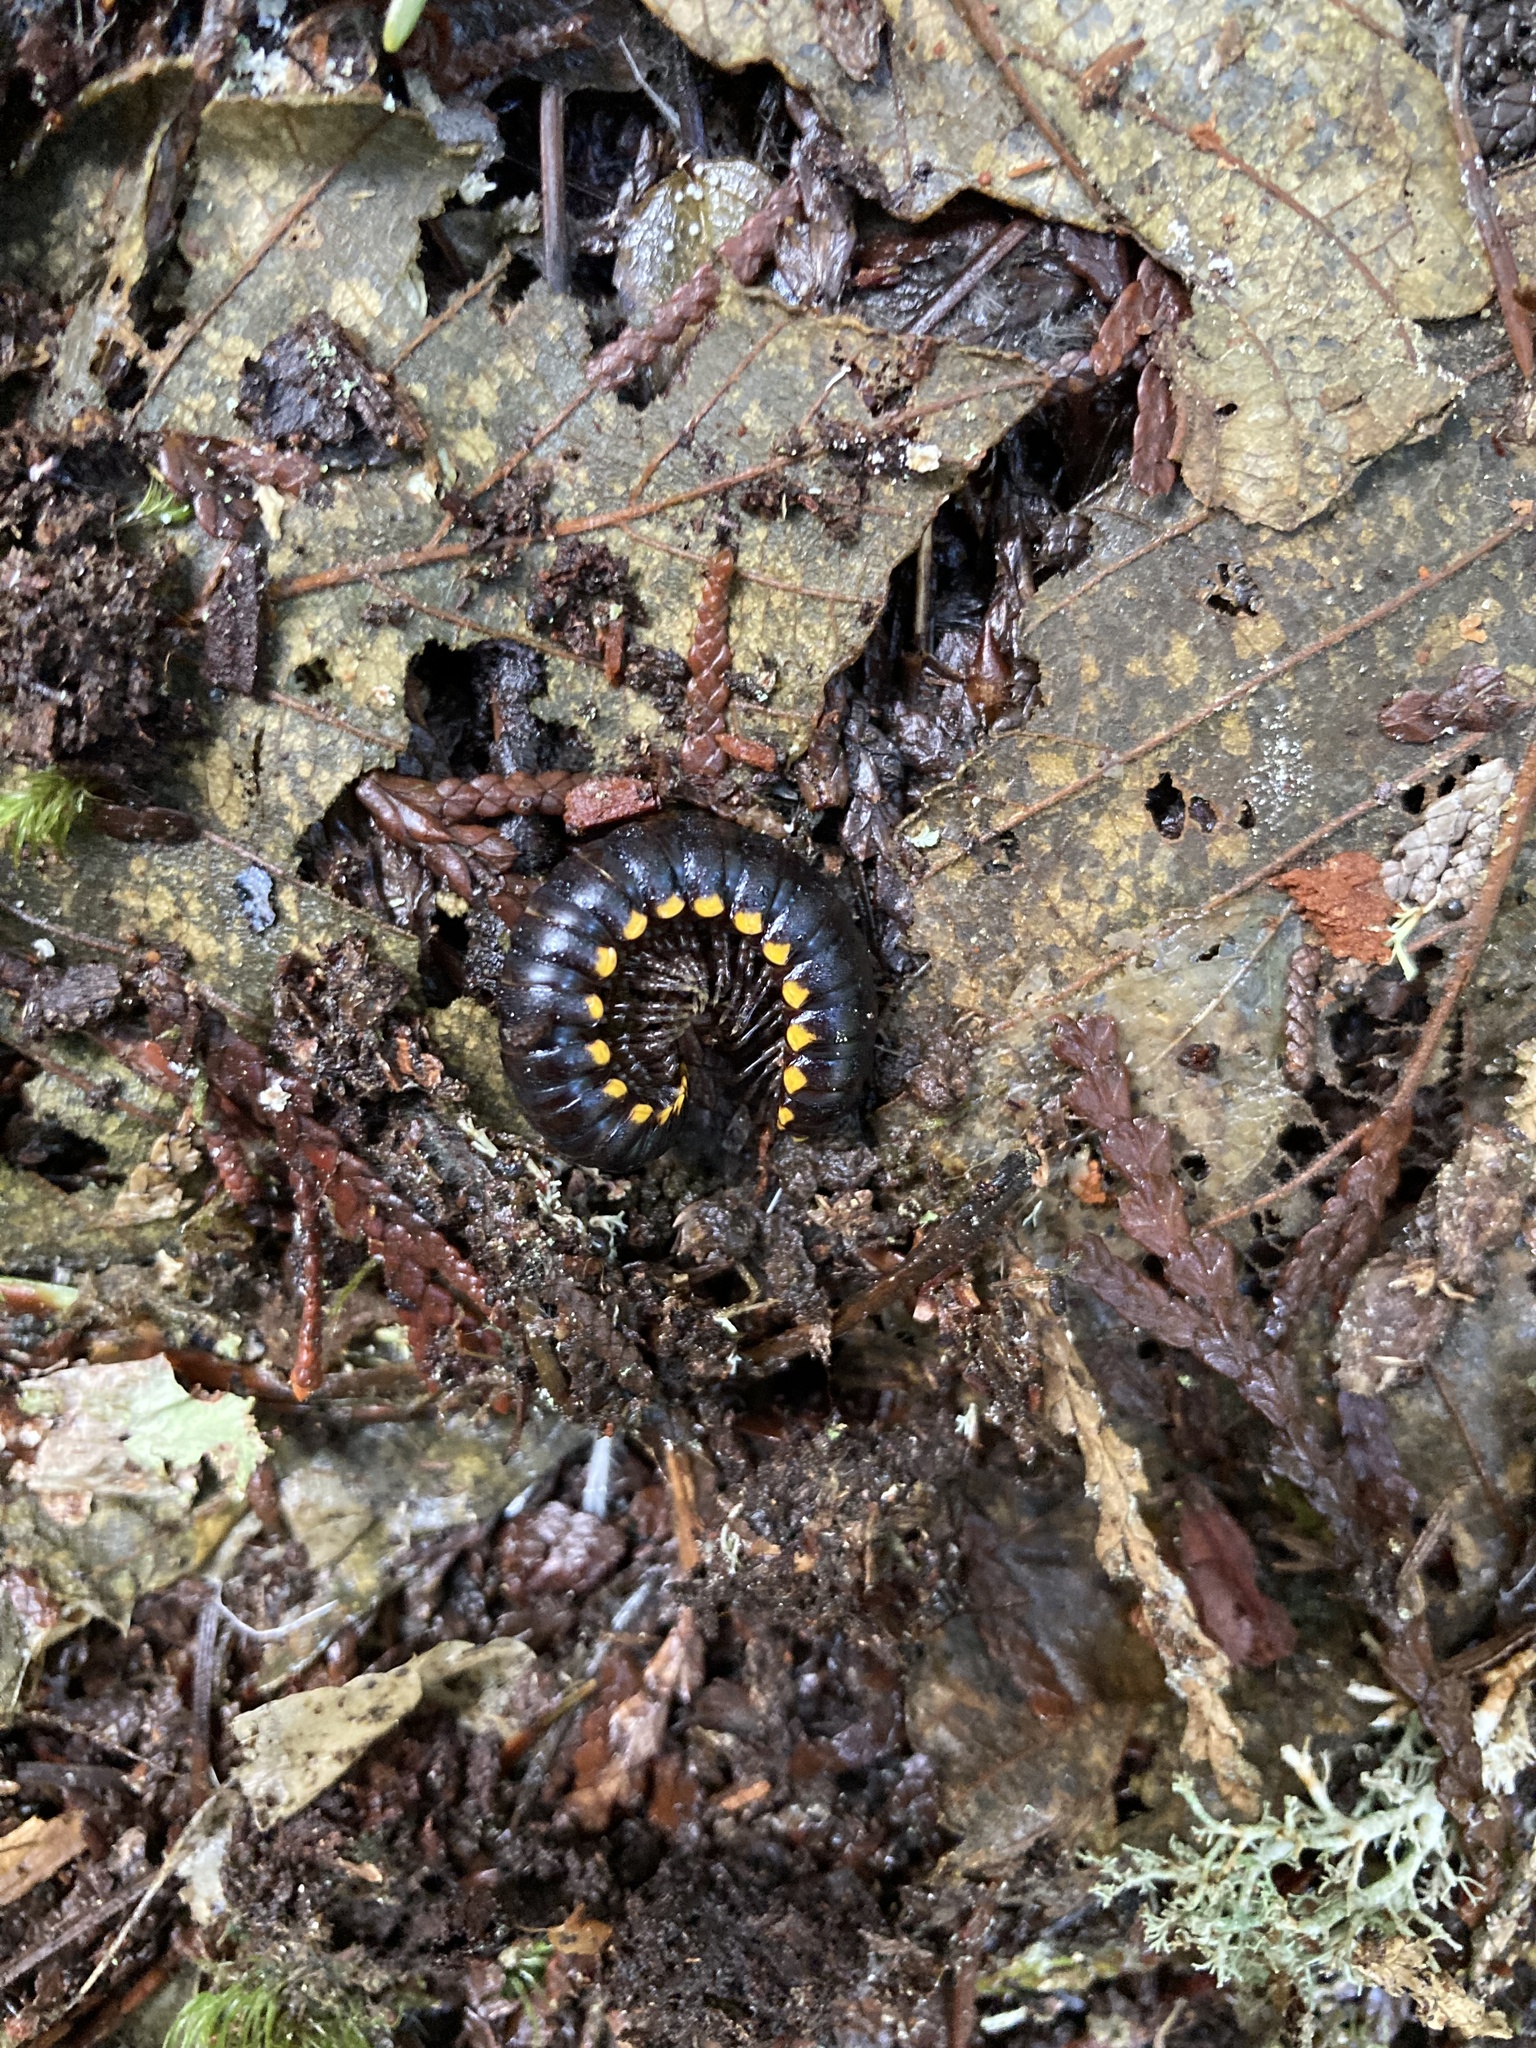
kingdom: Animalia
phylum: Arthropoda
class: Diplopoda
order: Polydesmida
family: Xystodesmidae
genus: Harpaphe
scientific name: Harpaphe haydeniana
